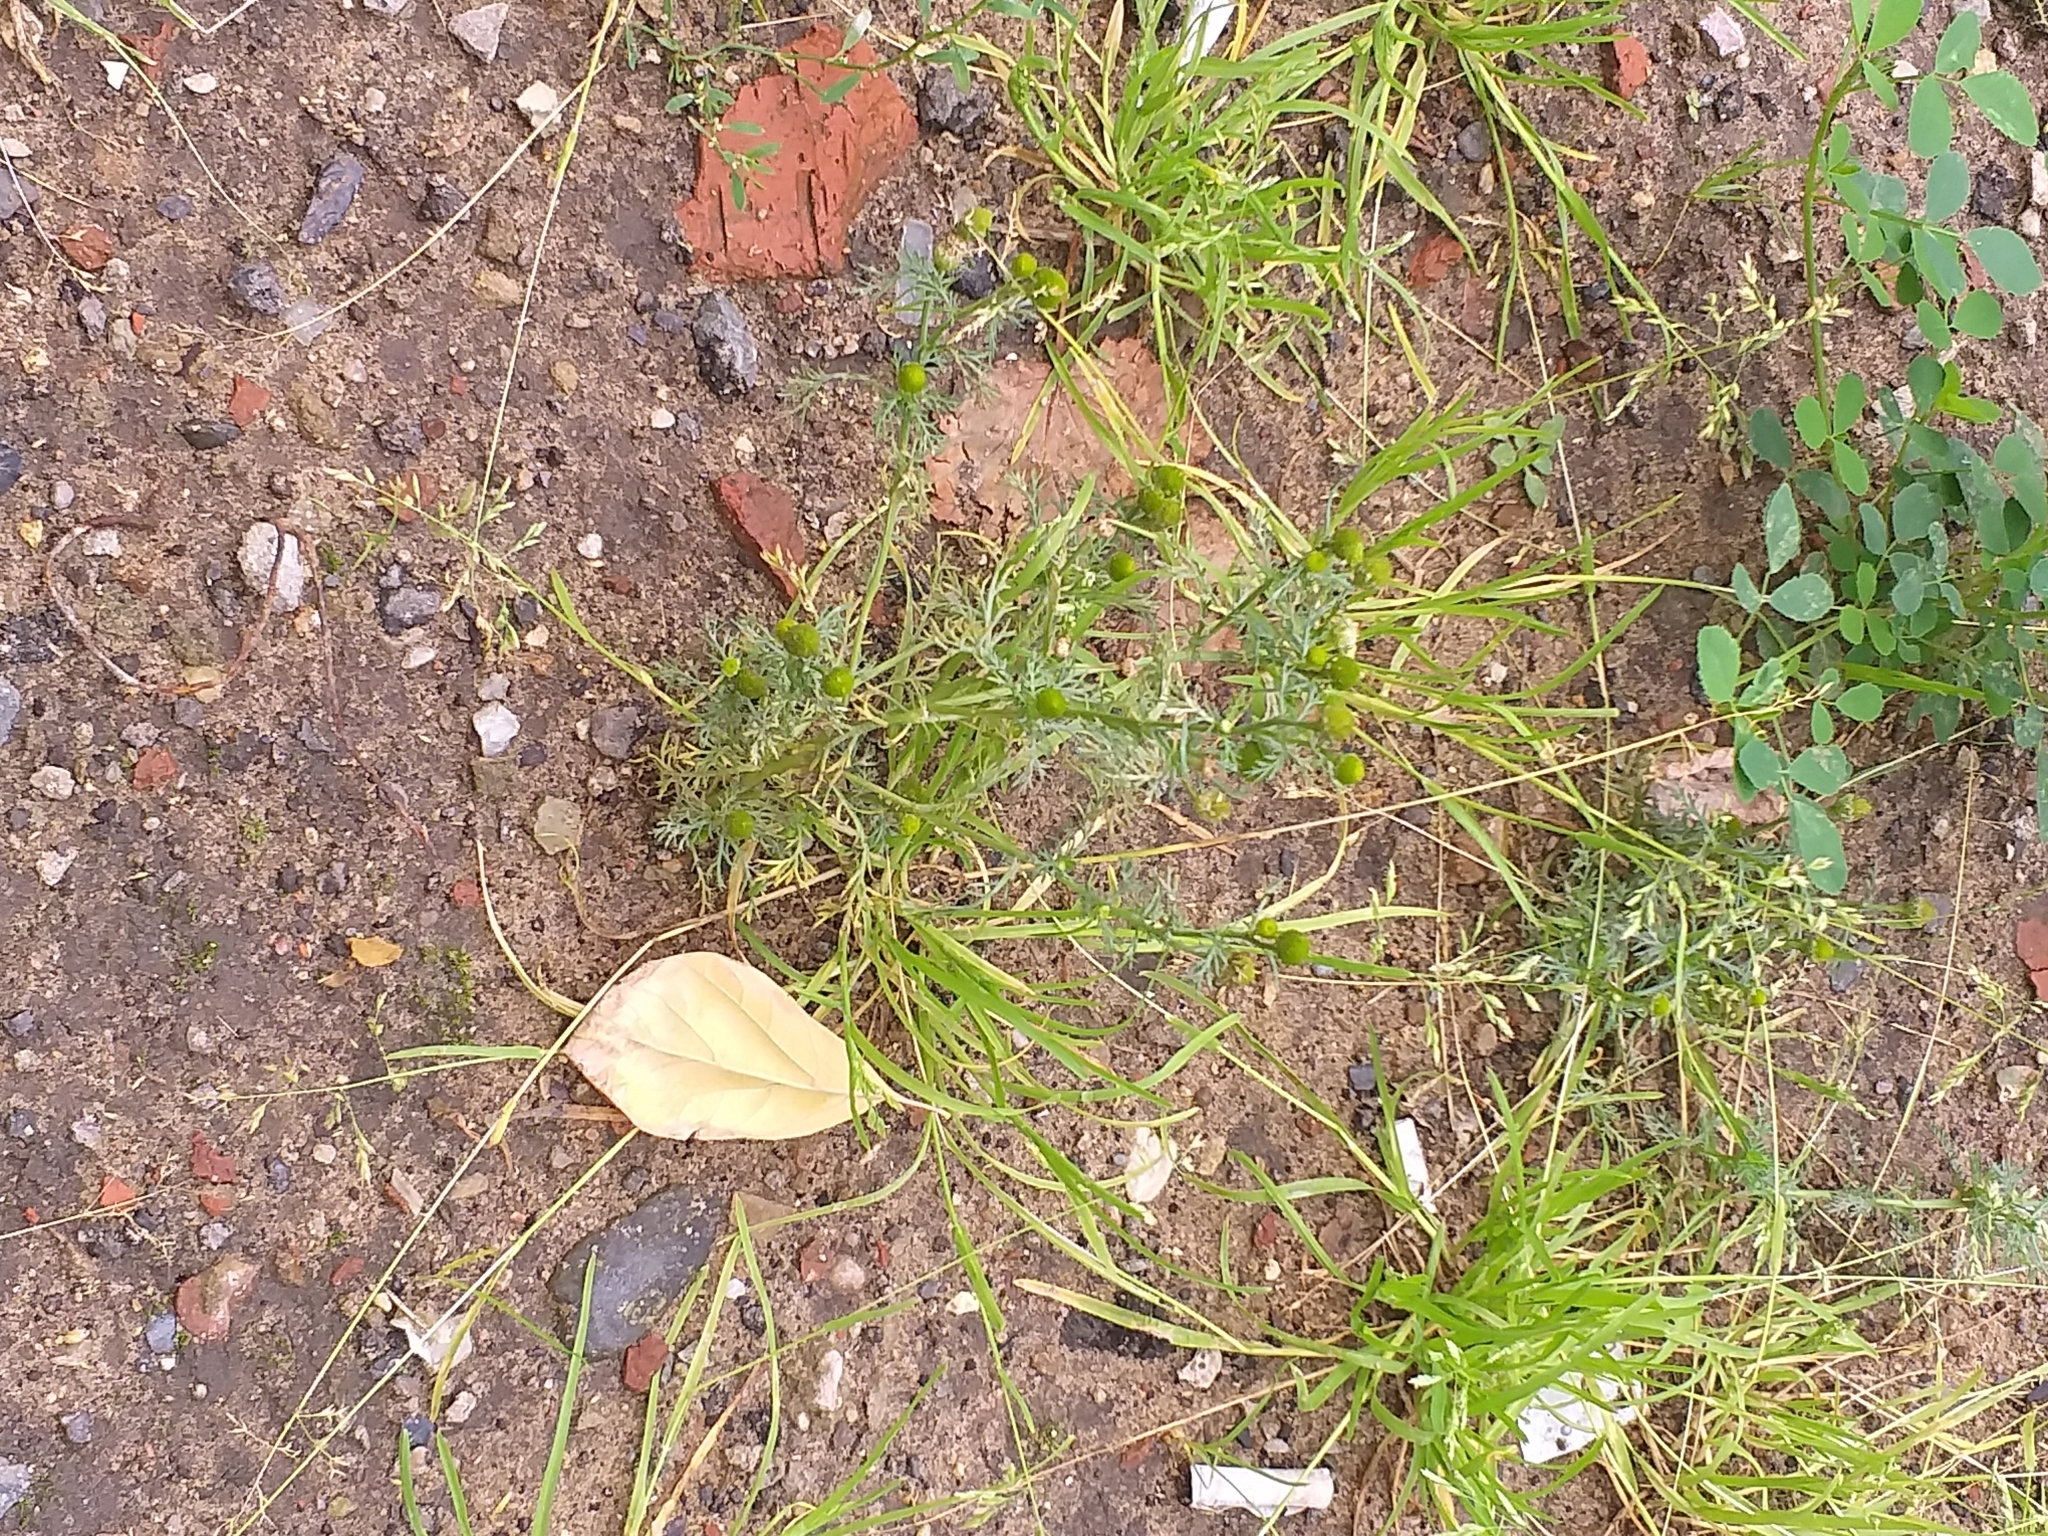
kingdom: Plantae
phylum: Tracheophyta
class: Magnoliopsida
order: Asterales
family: Asteraceae
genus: Matricaria
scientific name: Matricaria discoidea
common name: Disc mayweed
